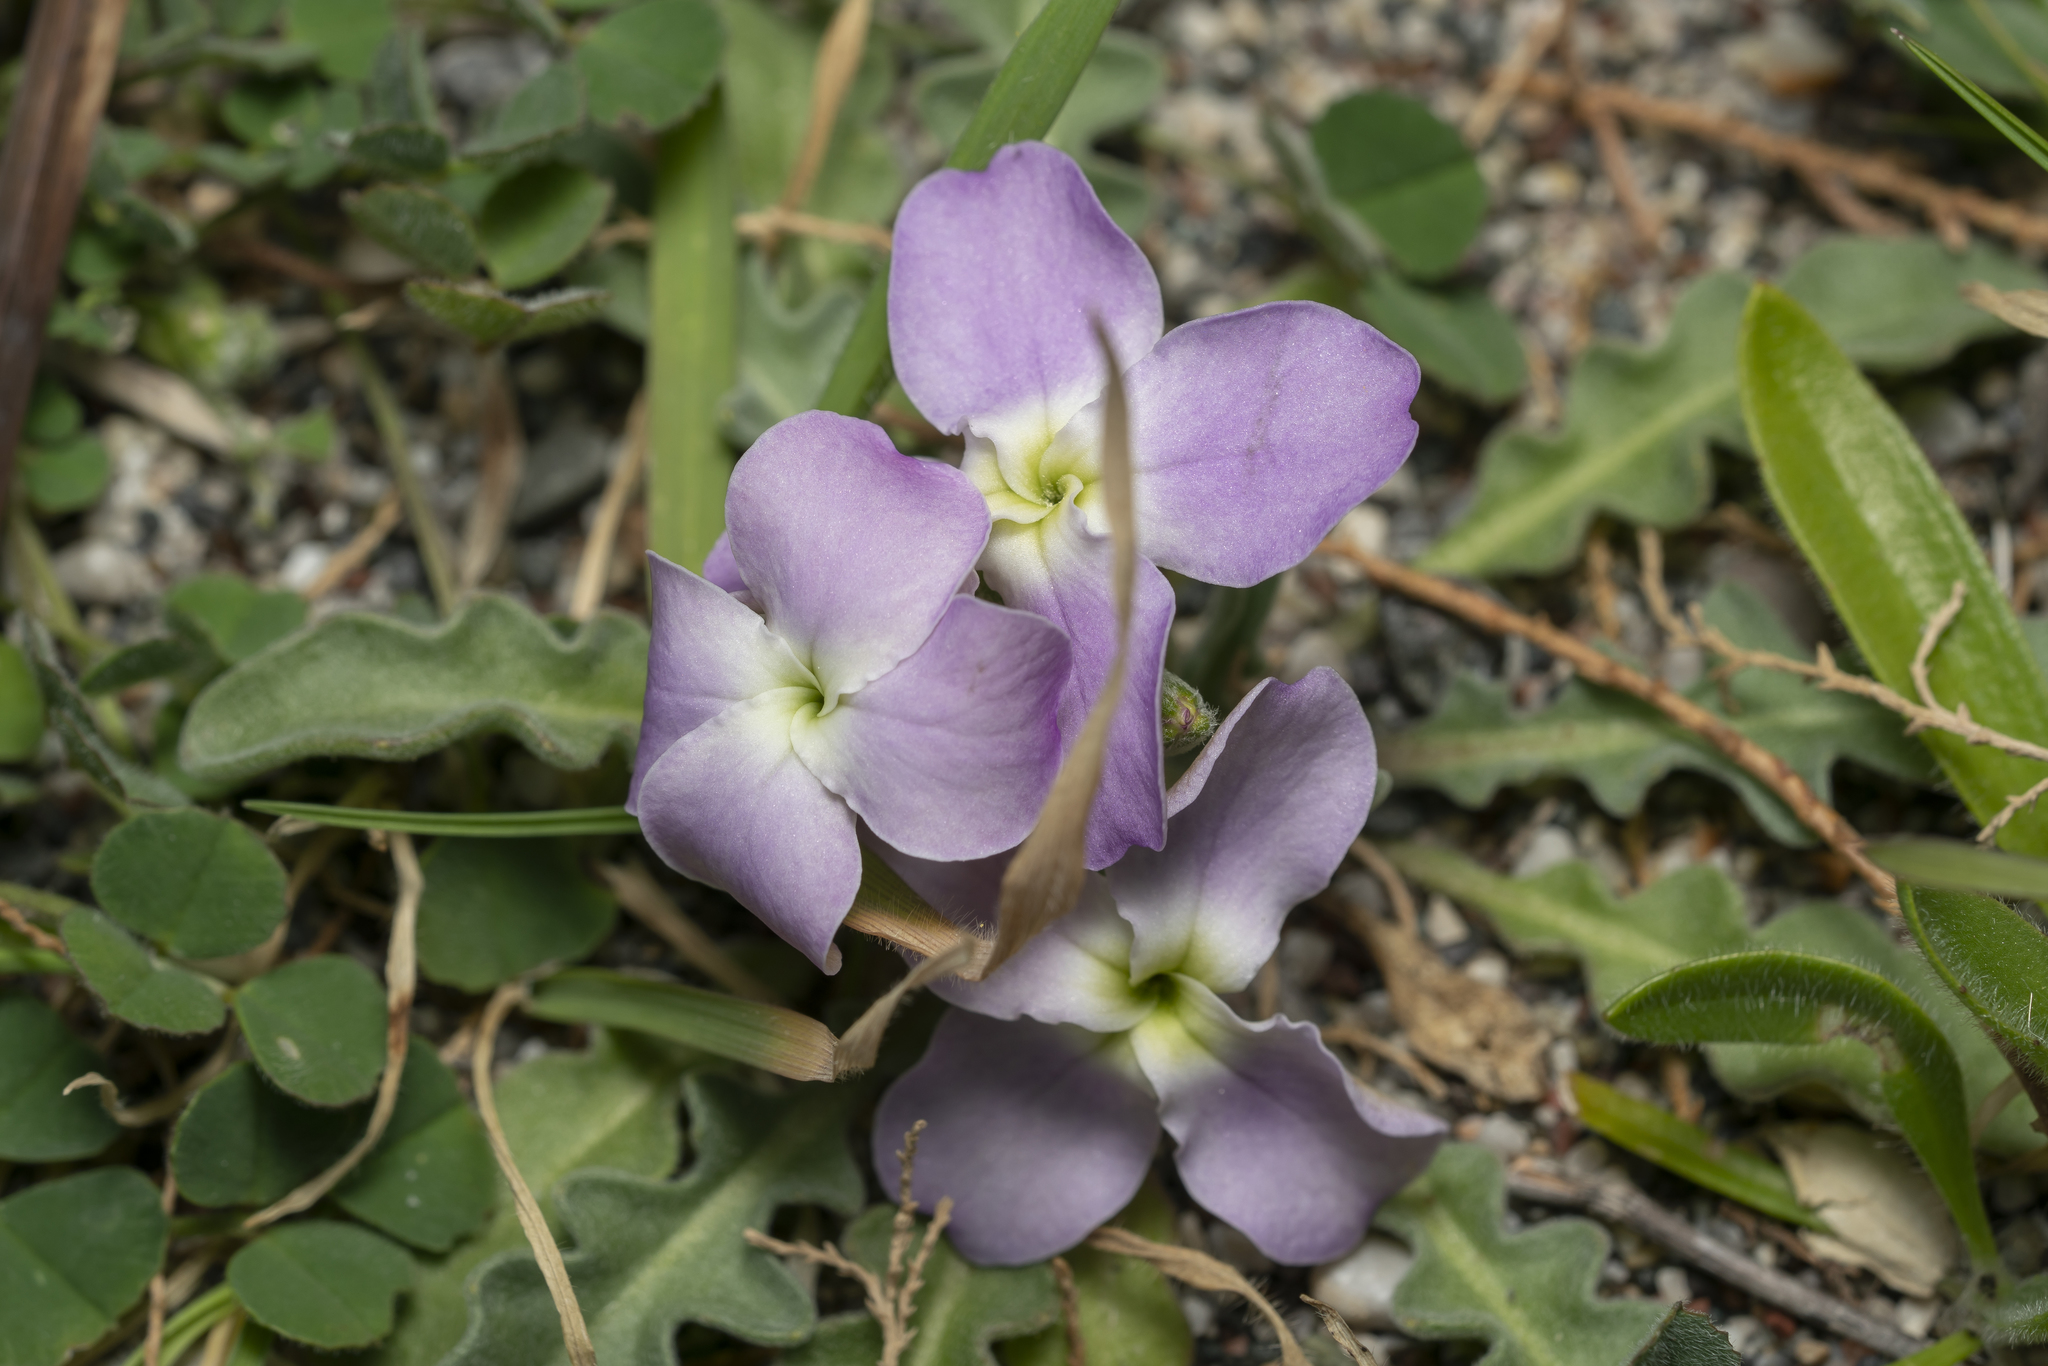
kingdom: Plantae
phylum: Tracheophyta
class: Magnoliopsida
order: Brassicales
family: Brassicaceae
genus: Matthiola
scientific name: Matthiola longipetala
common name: Night-scented stock
